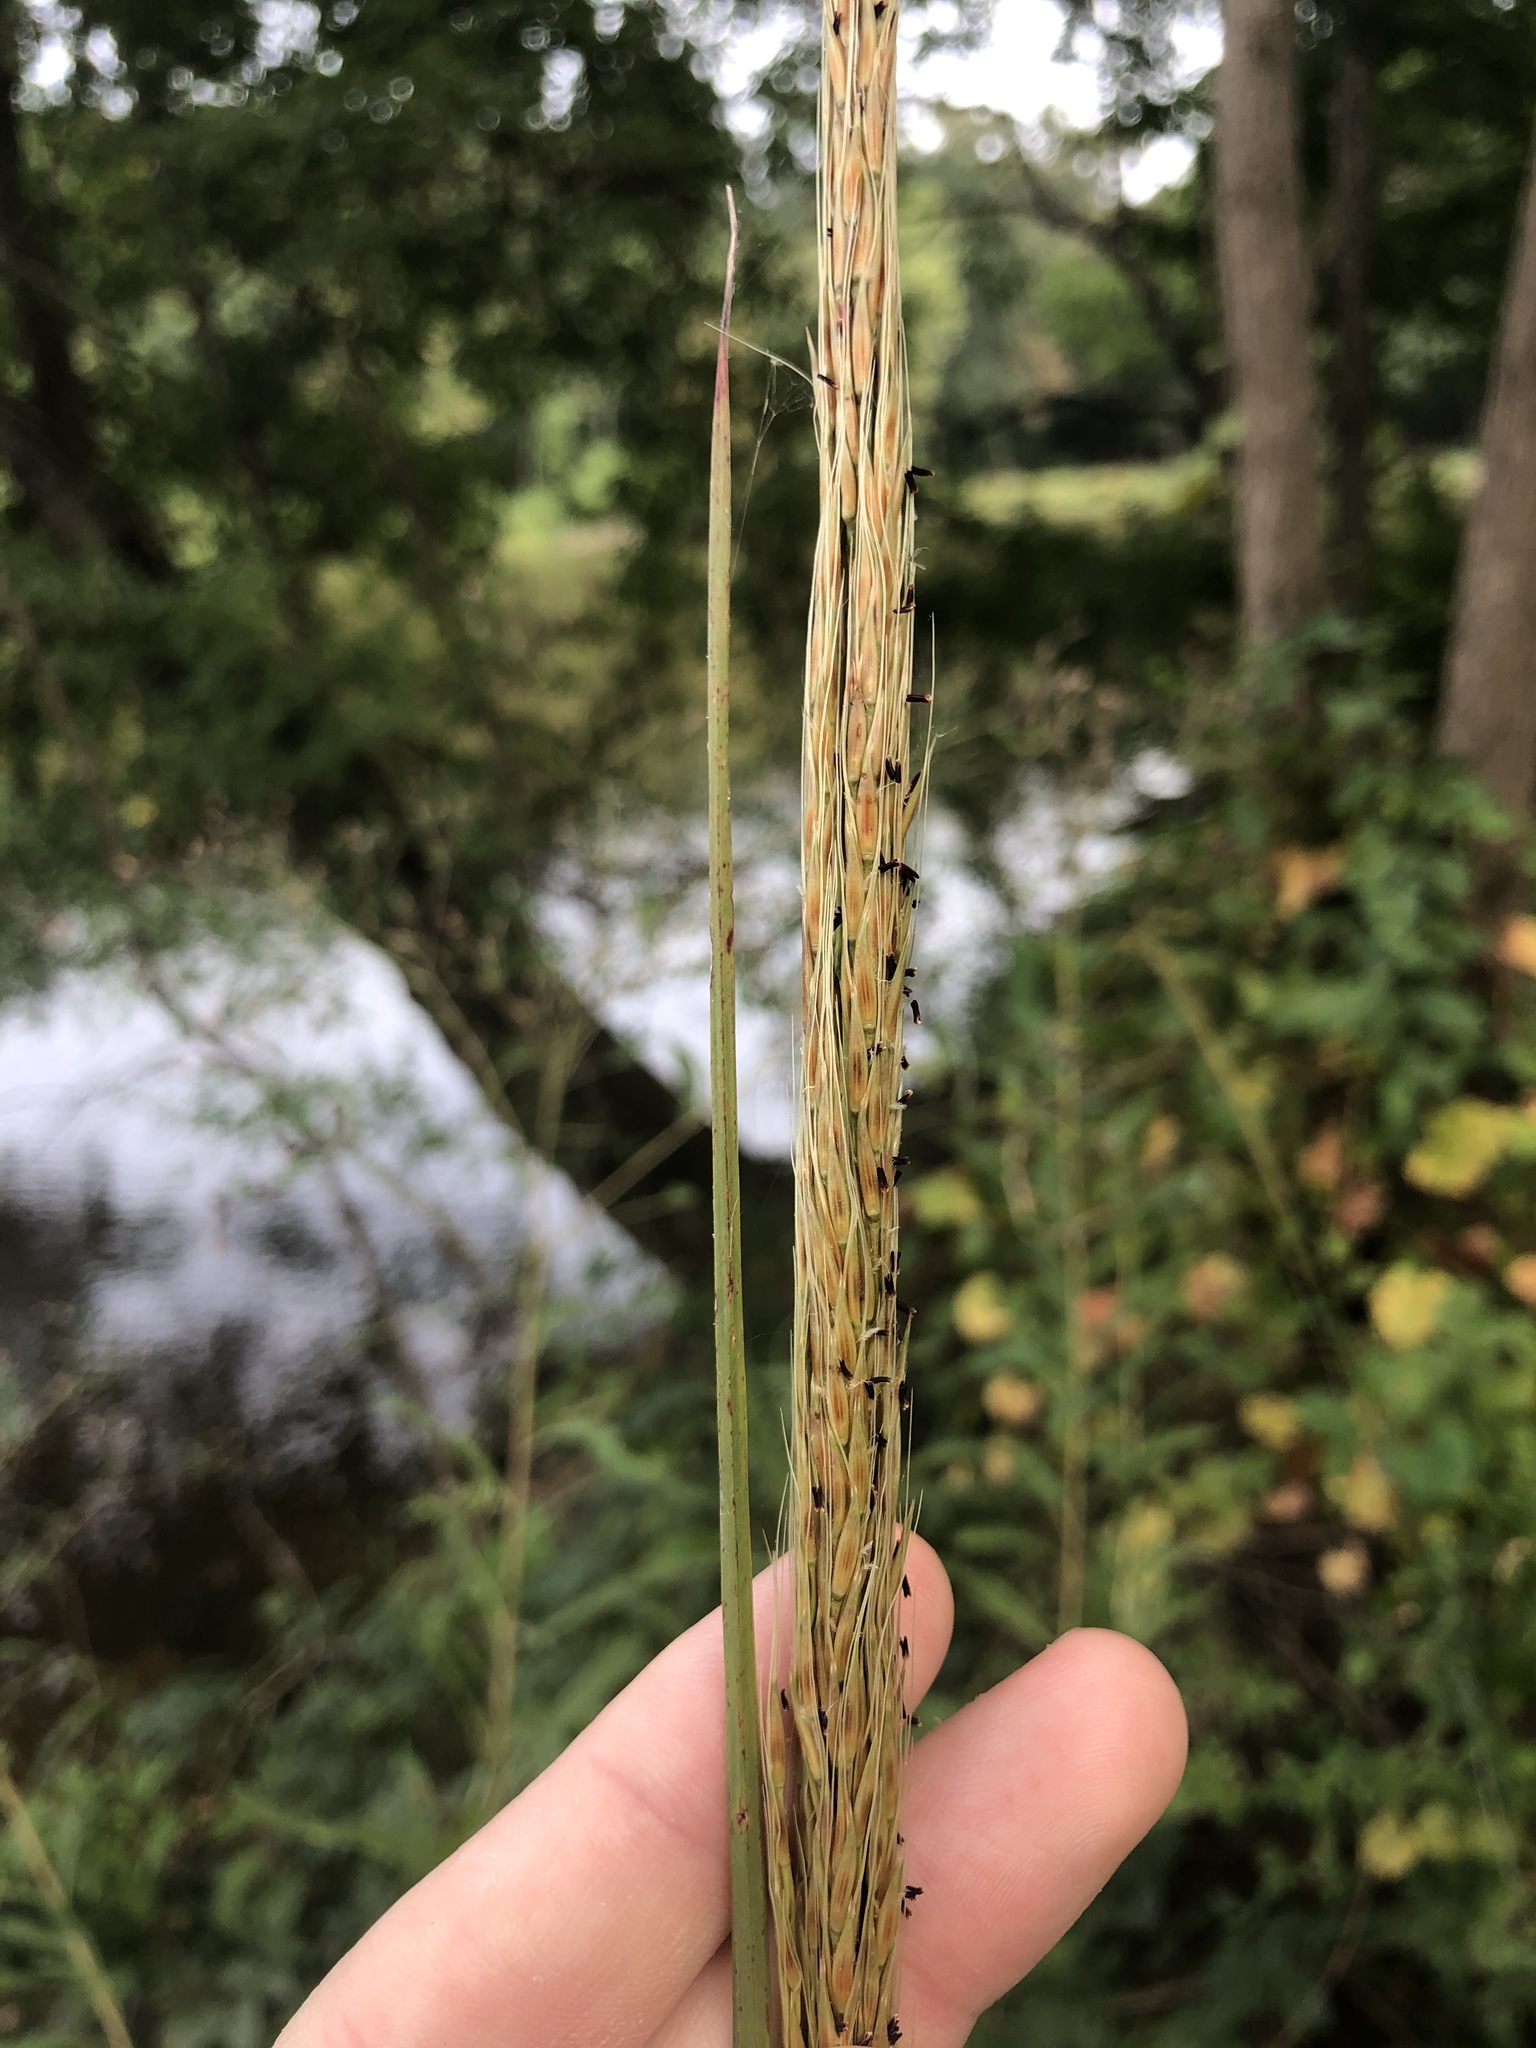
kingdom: Plantae
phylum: Tracheophyta
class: Liliopsida
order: Poales
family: Poaceae
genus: Erianthus
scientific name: Erianthus strictus
